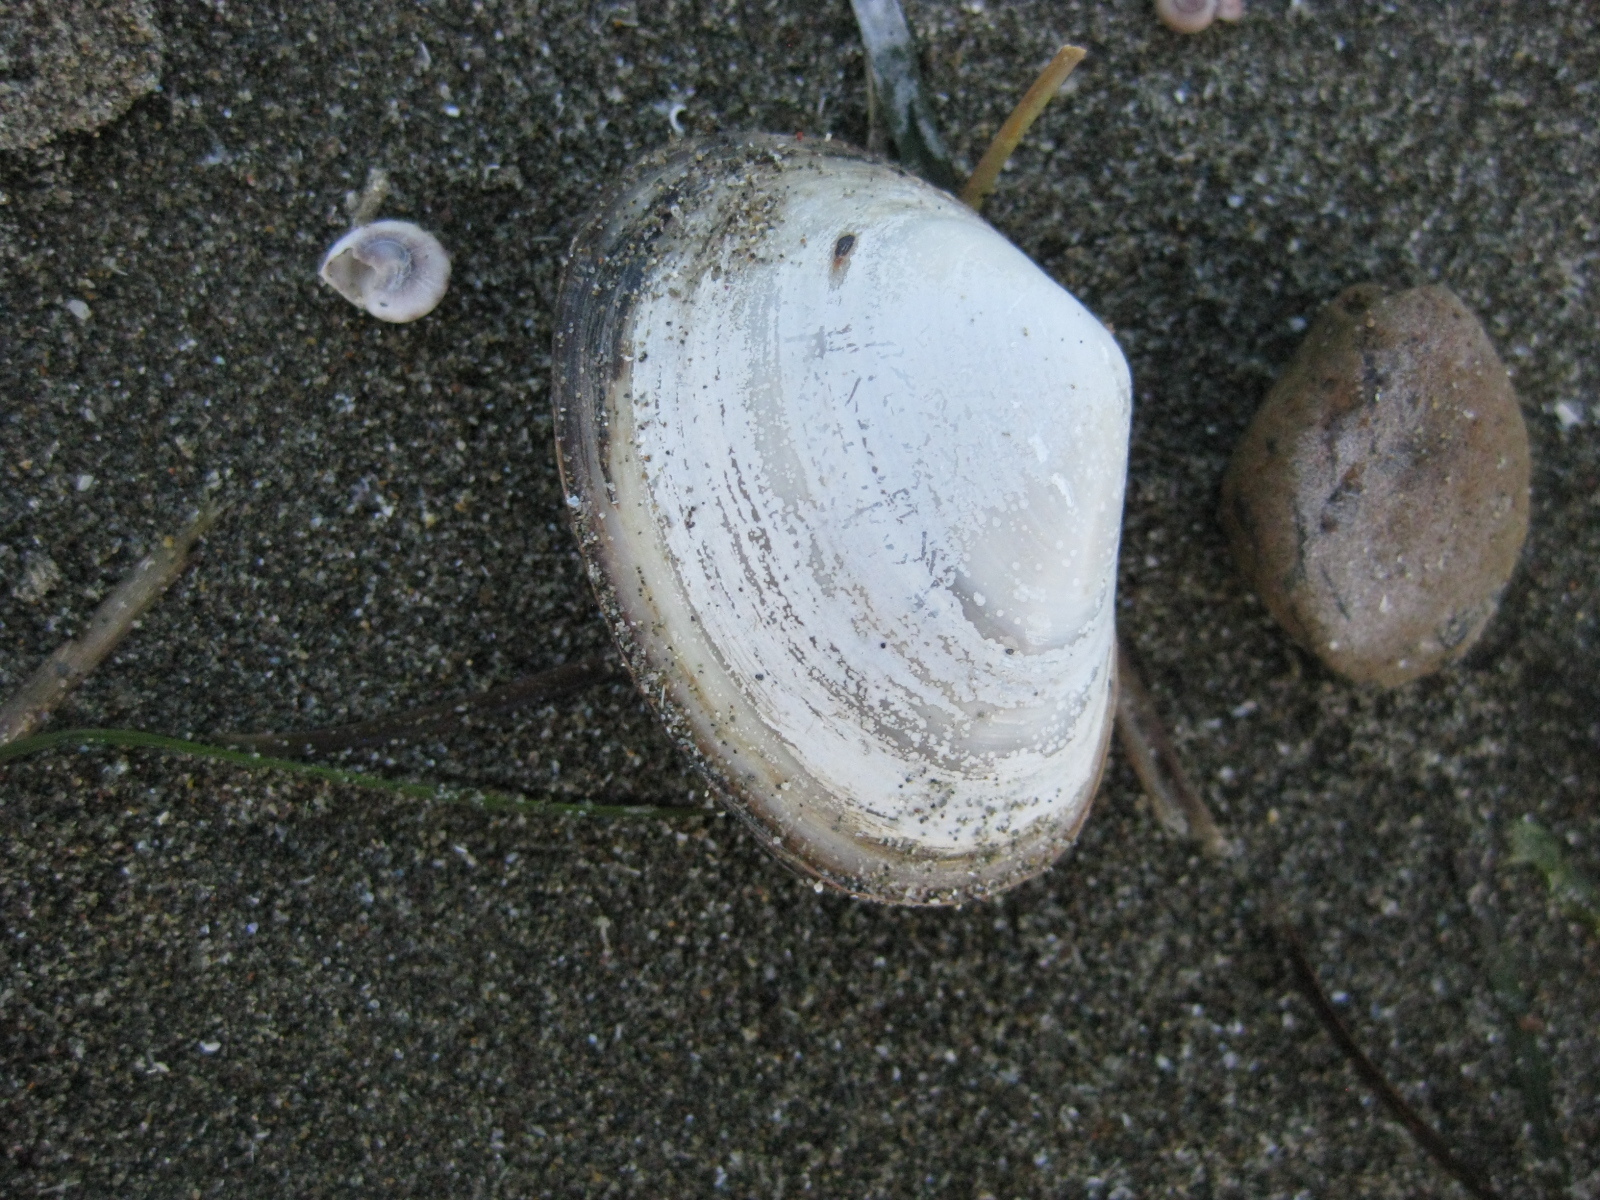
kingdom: Animalia
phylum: Mollusca
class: Bivalvia
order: Venerida
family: Mesodesmatidae
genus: Paphies
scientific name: Paphies australis
